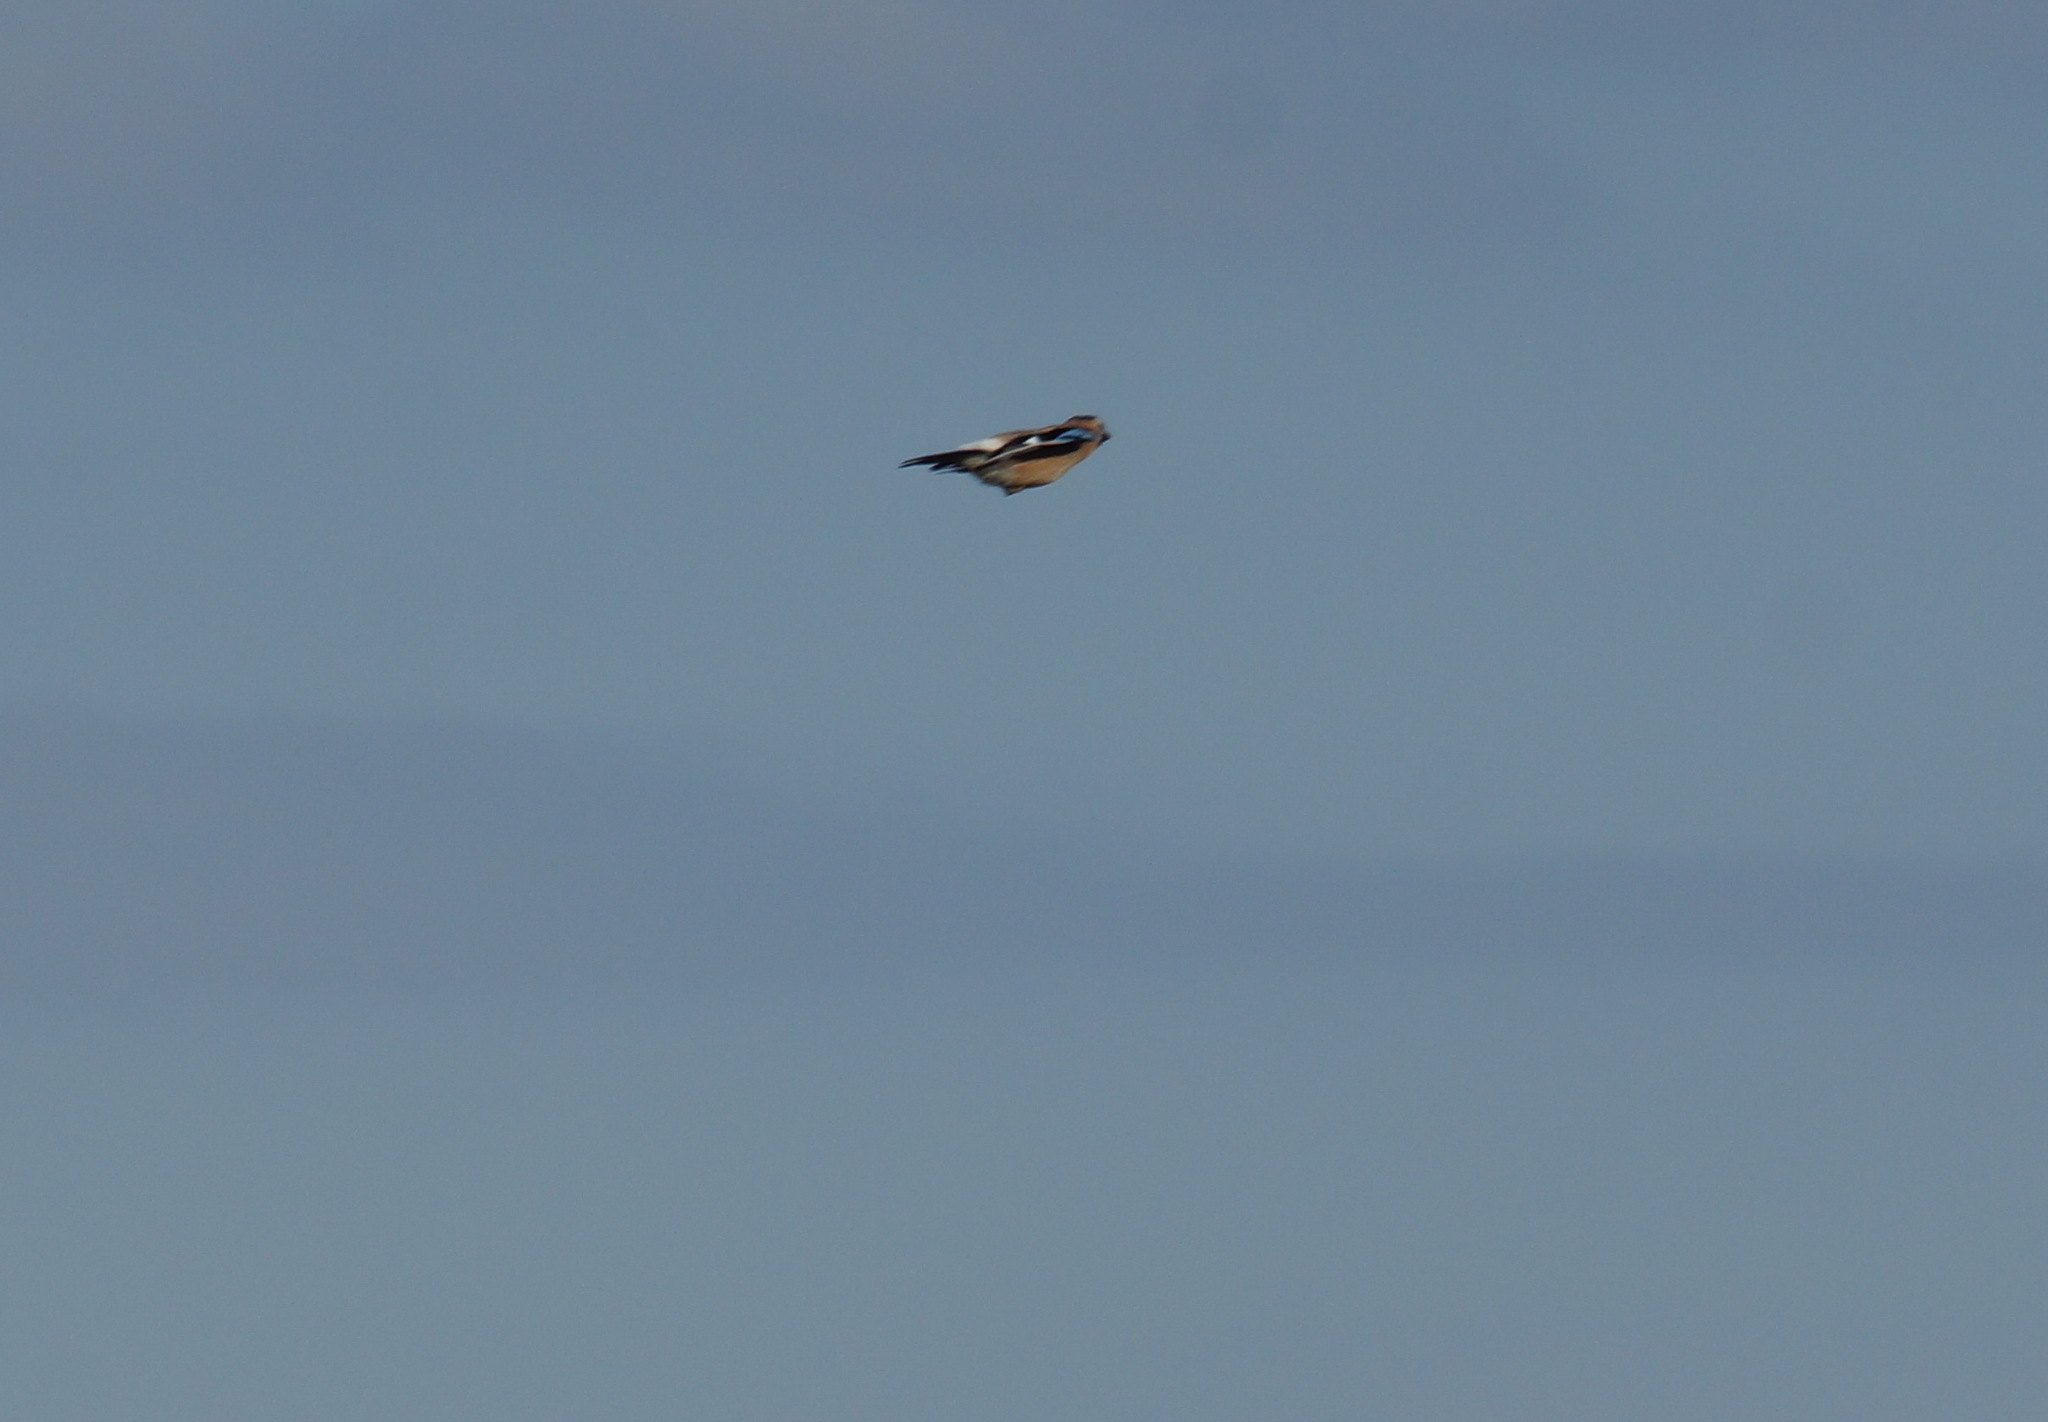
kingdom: Animalia
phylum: Chordata
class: Aves
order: Passeriformes
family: Corvidae
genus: Garrulus
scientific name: Garrulus glandarius
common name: Eurasian jay
